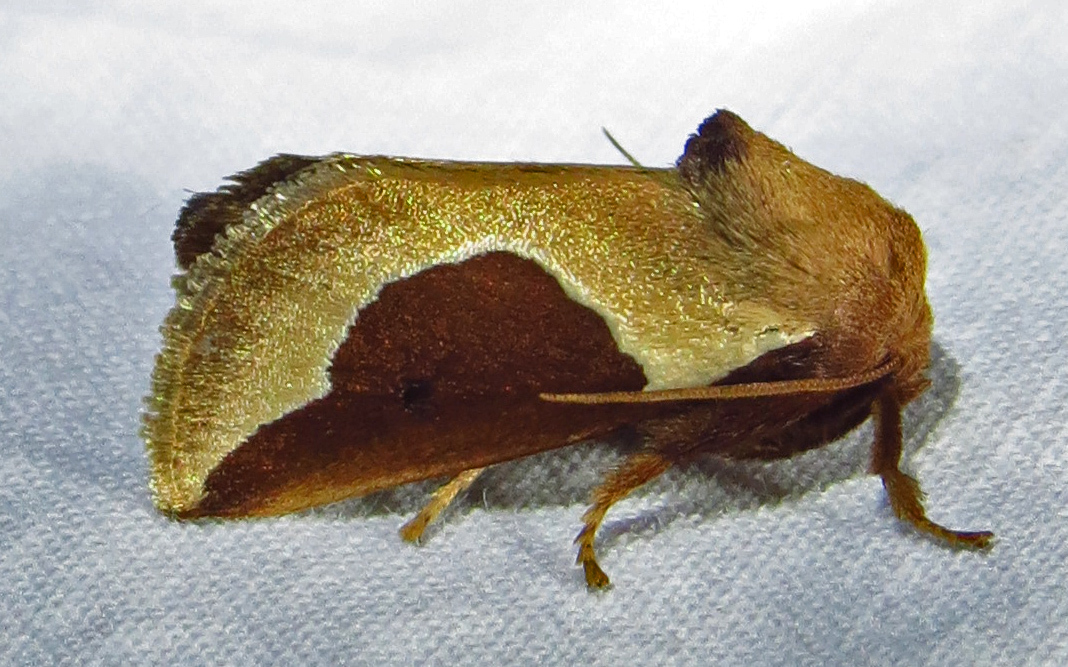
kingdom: Animalia
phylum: Arthropoda
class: Insecta
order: Lepidoptera
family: Limacodidae
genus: Prolimacodes
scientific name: Prolimacodes badia
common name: Skiff moth
